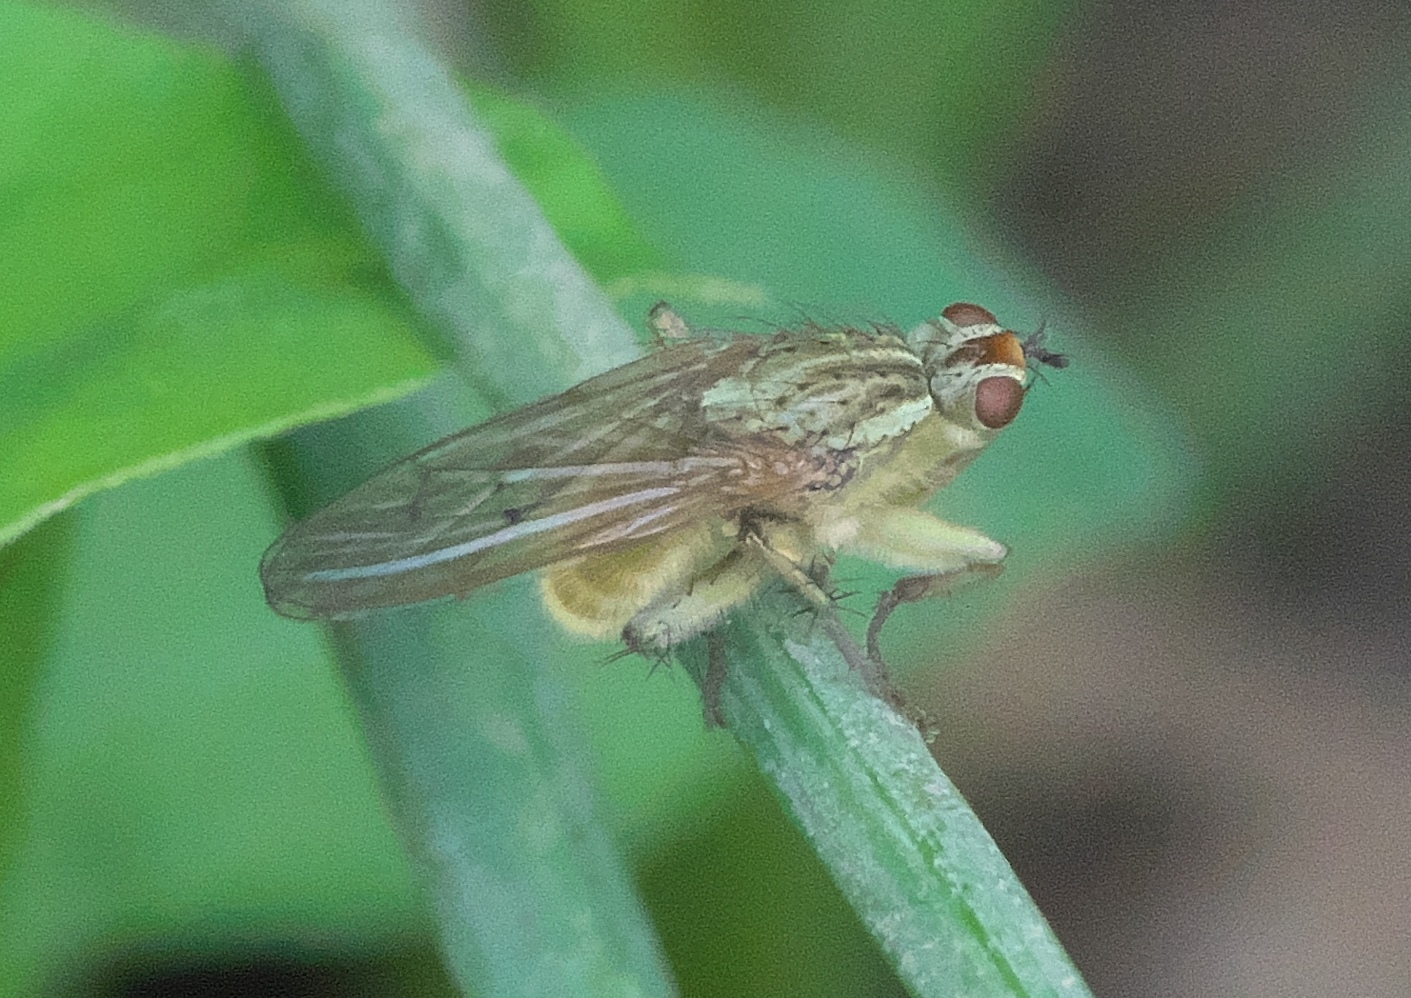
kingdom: Animalia
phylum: Arthropoda
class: Insecta
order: Diptera
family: Scathophagidae
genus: Scathophaga
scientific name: Scathophaga stercoraria
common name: Yellow dung fly
